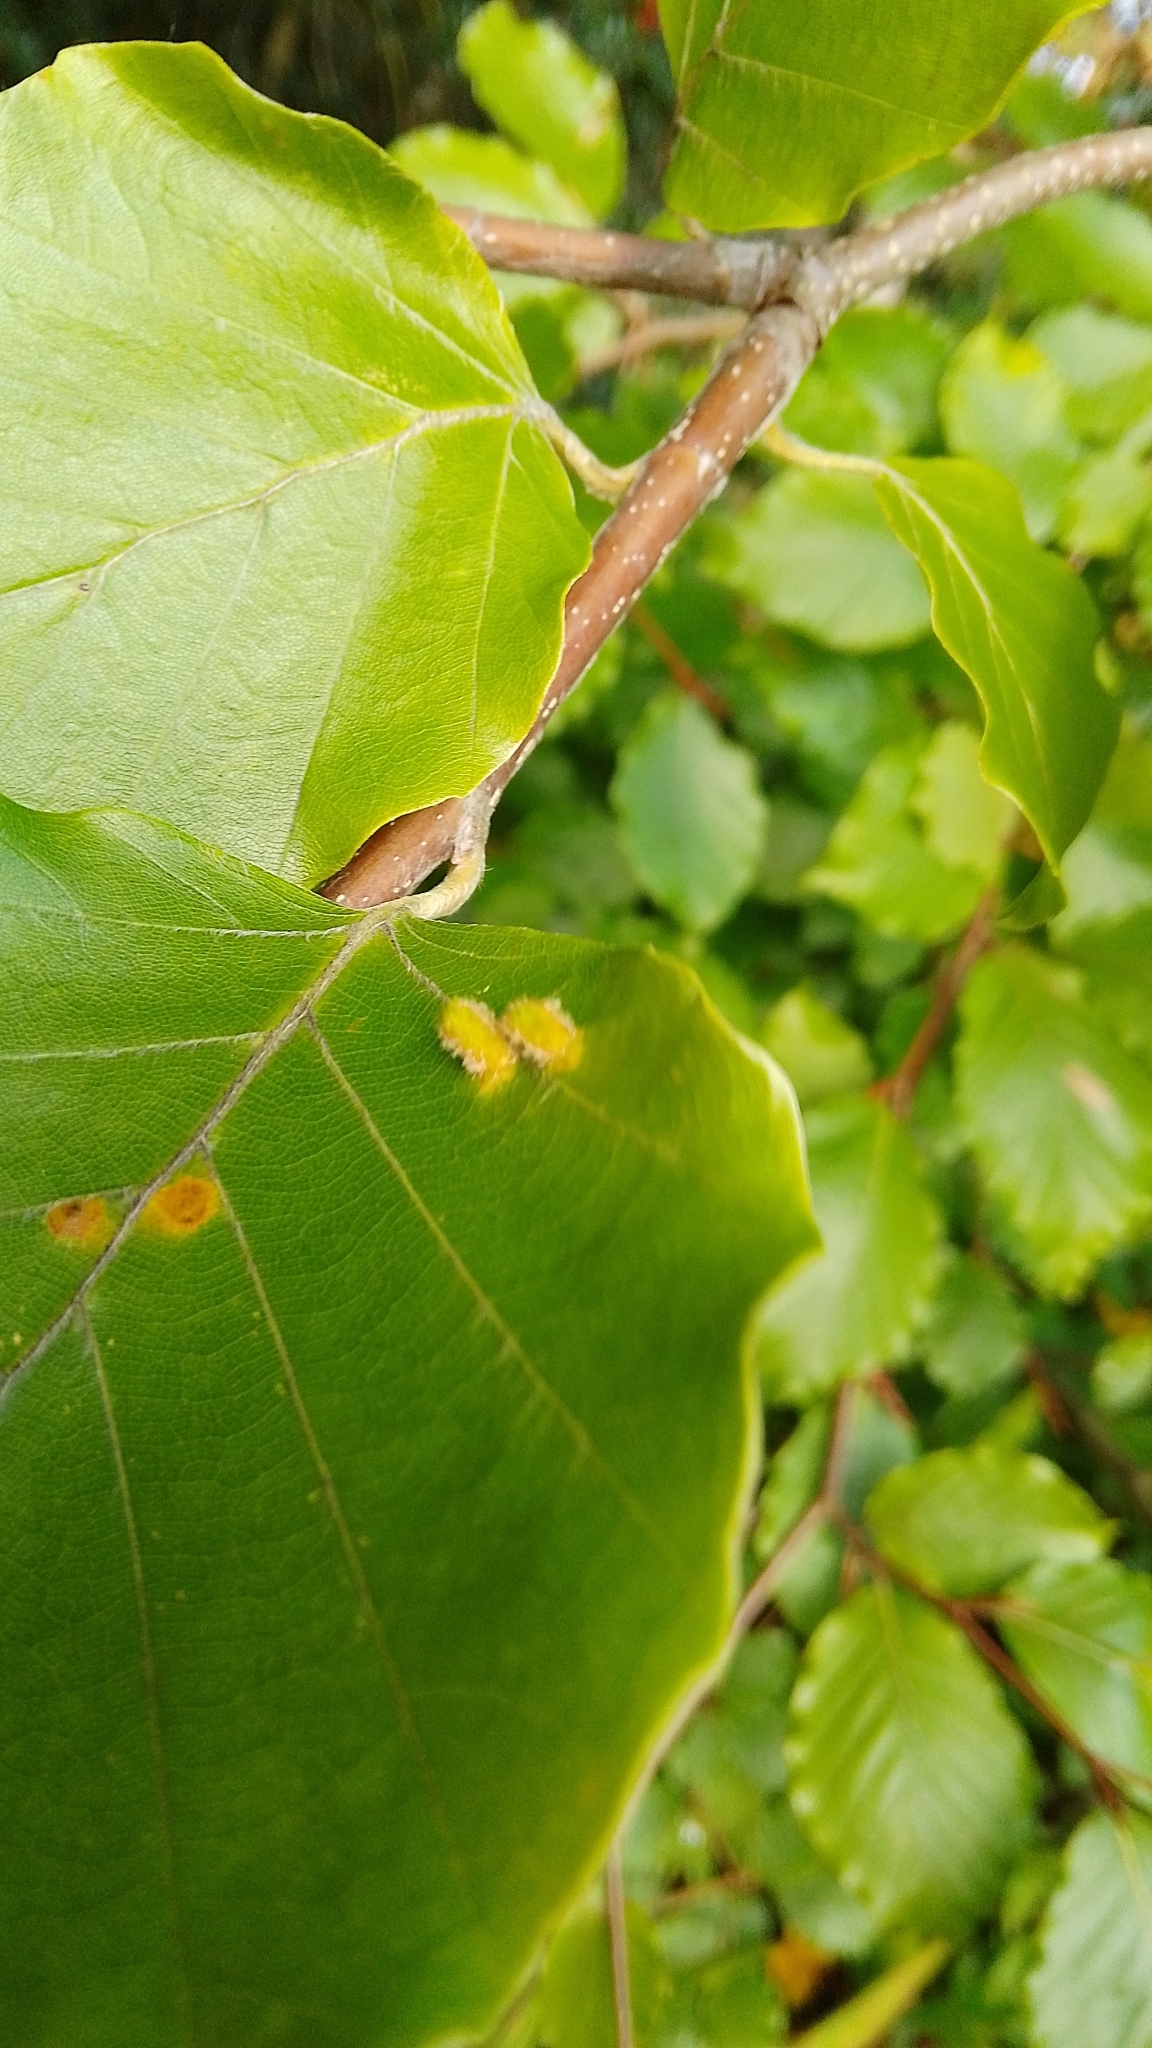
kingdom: Animalia
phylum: Arthropoda
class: Insecta
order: Diptera
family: Cecidomyiidae
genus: Hartigiola
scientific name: Hartigiola annulipes
